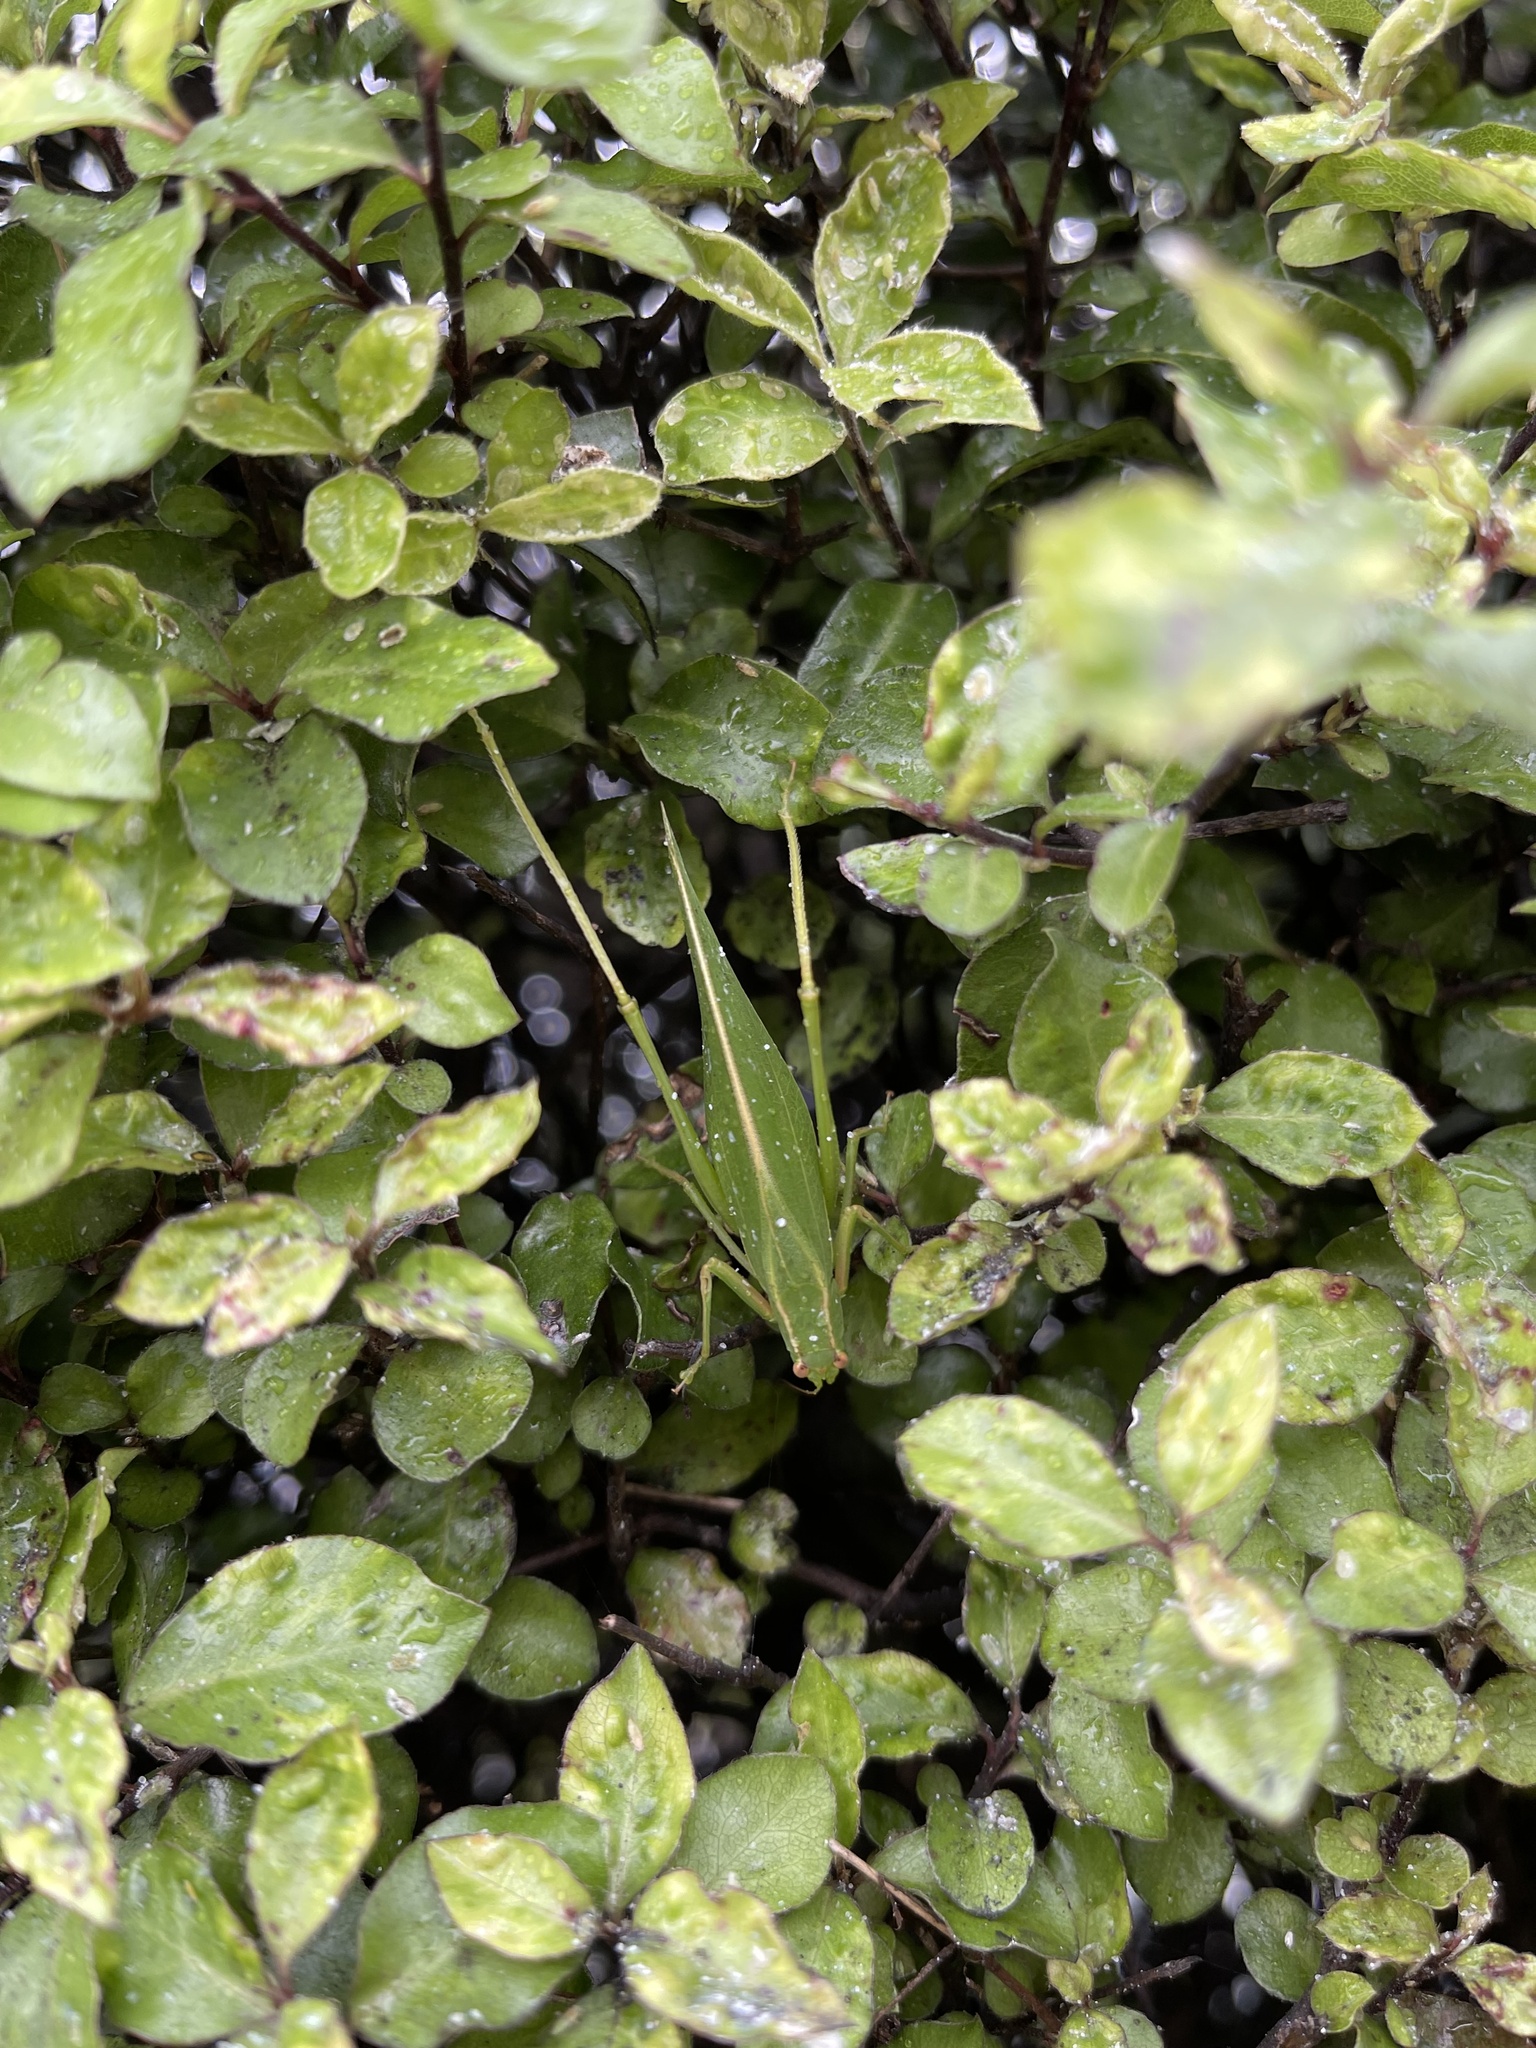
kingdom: Animalia
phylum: Arthropoda
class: Insecta
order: Orthoptera
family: Tettigoniidae
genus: Caedicia
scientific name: Caedicia simplex
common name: Common garden katydid
